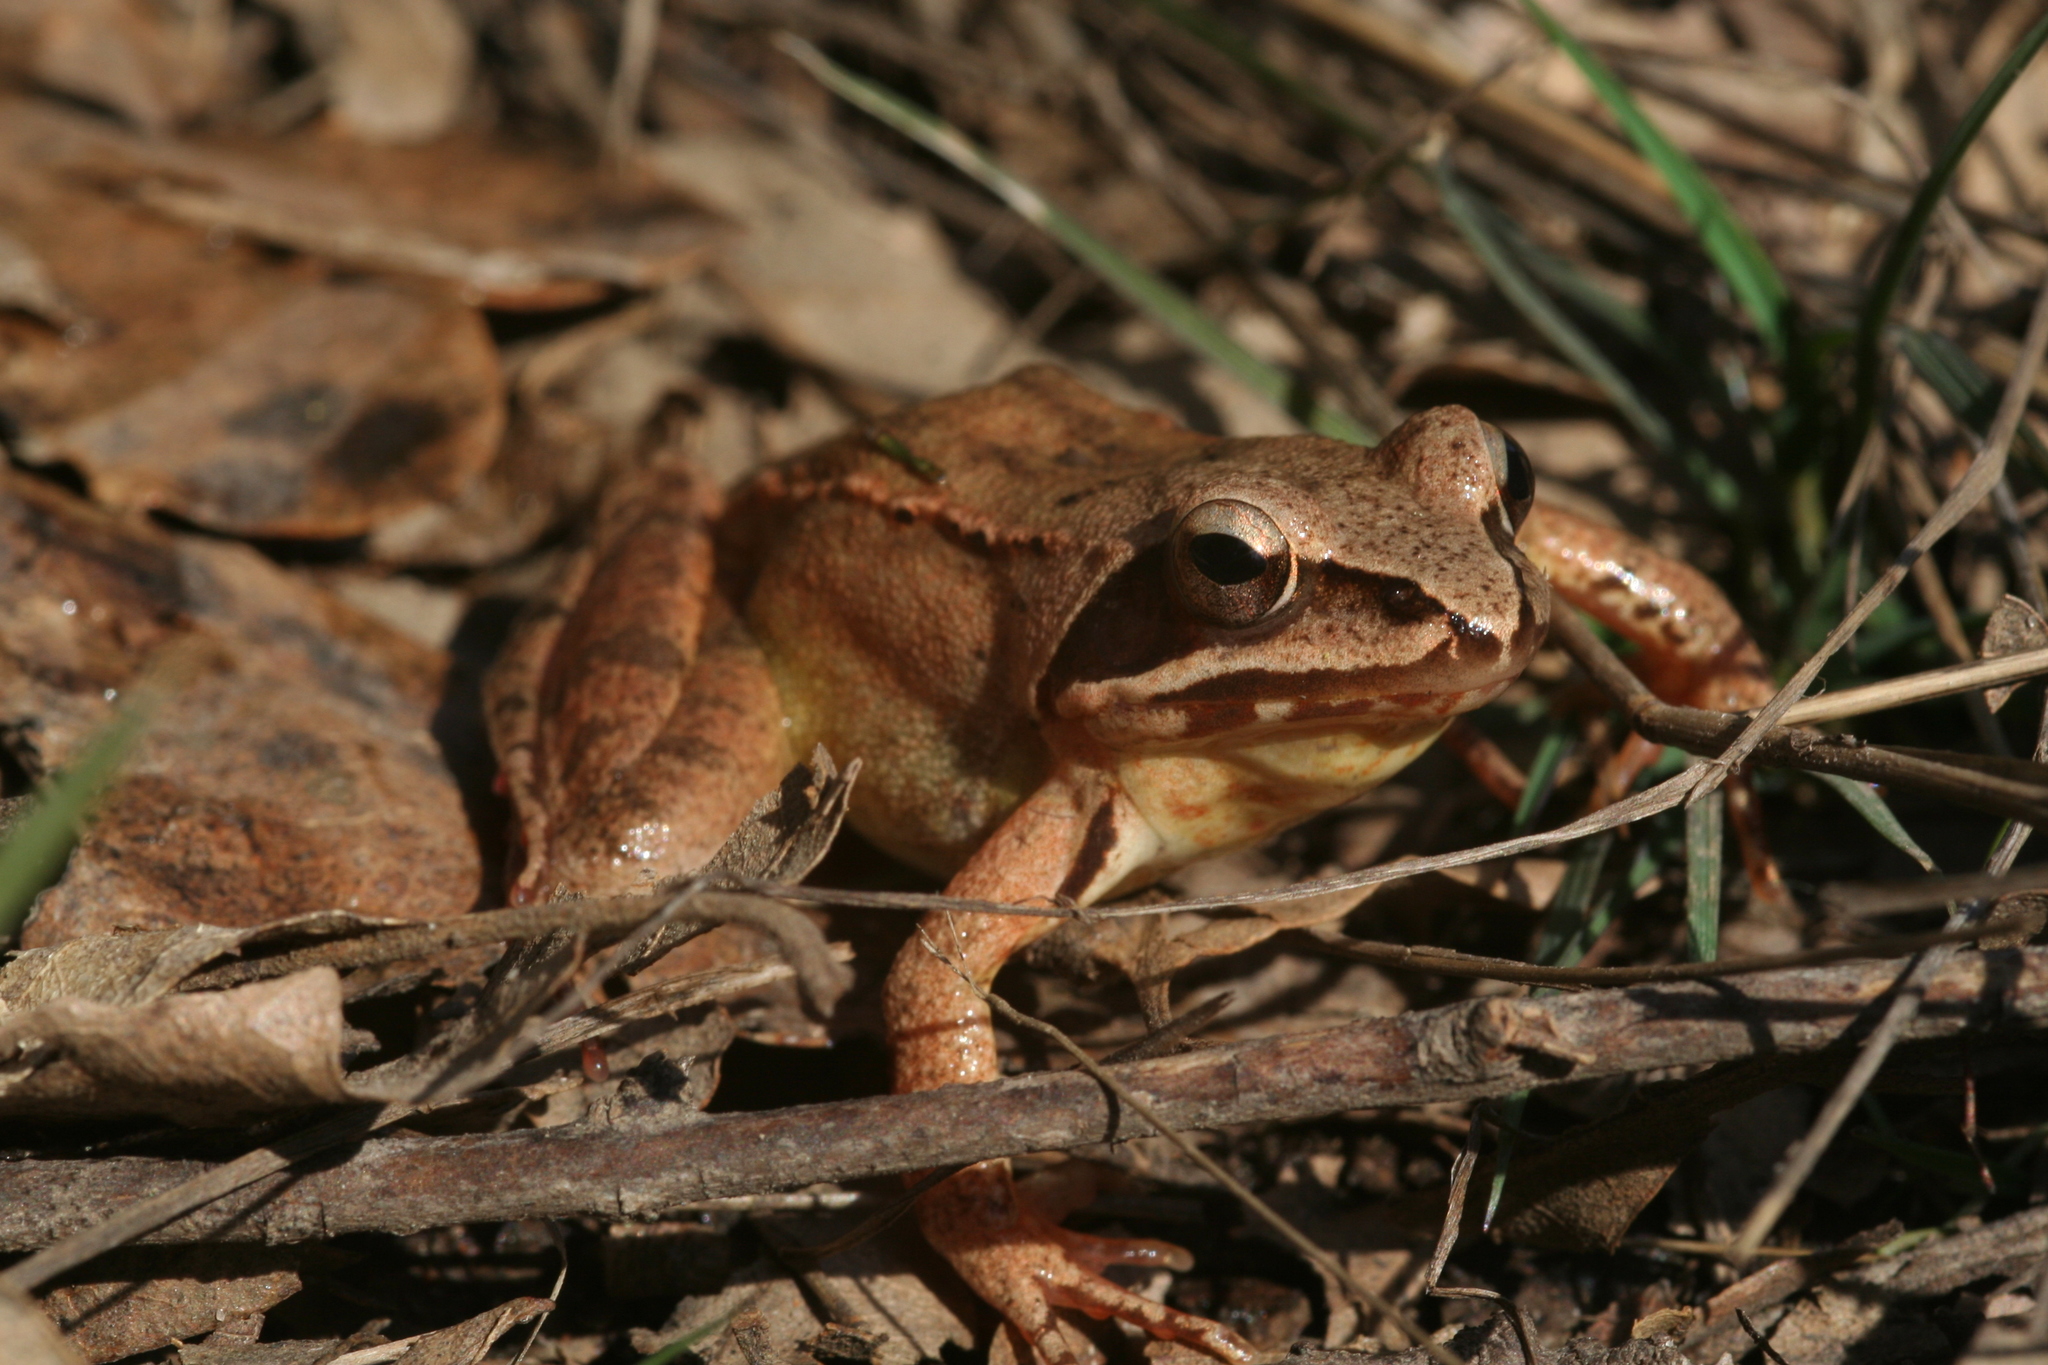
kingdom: Animalia
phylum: Chordata
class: Amphibia
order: Anura
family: Ranidae
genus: Rana
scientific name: Rana dalmatina
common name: Agile frog
